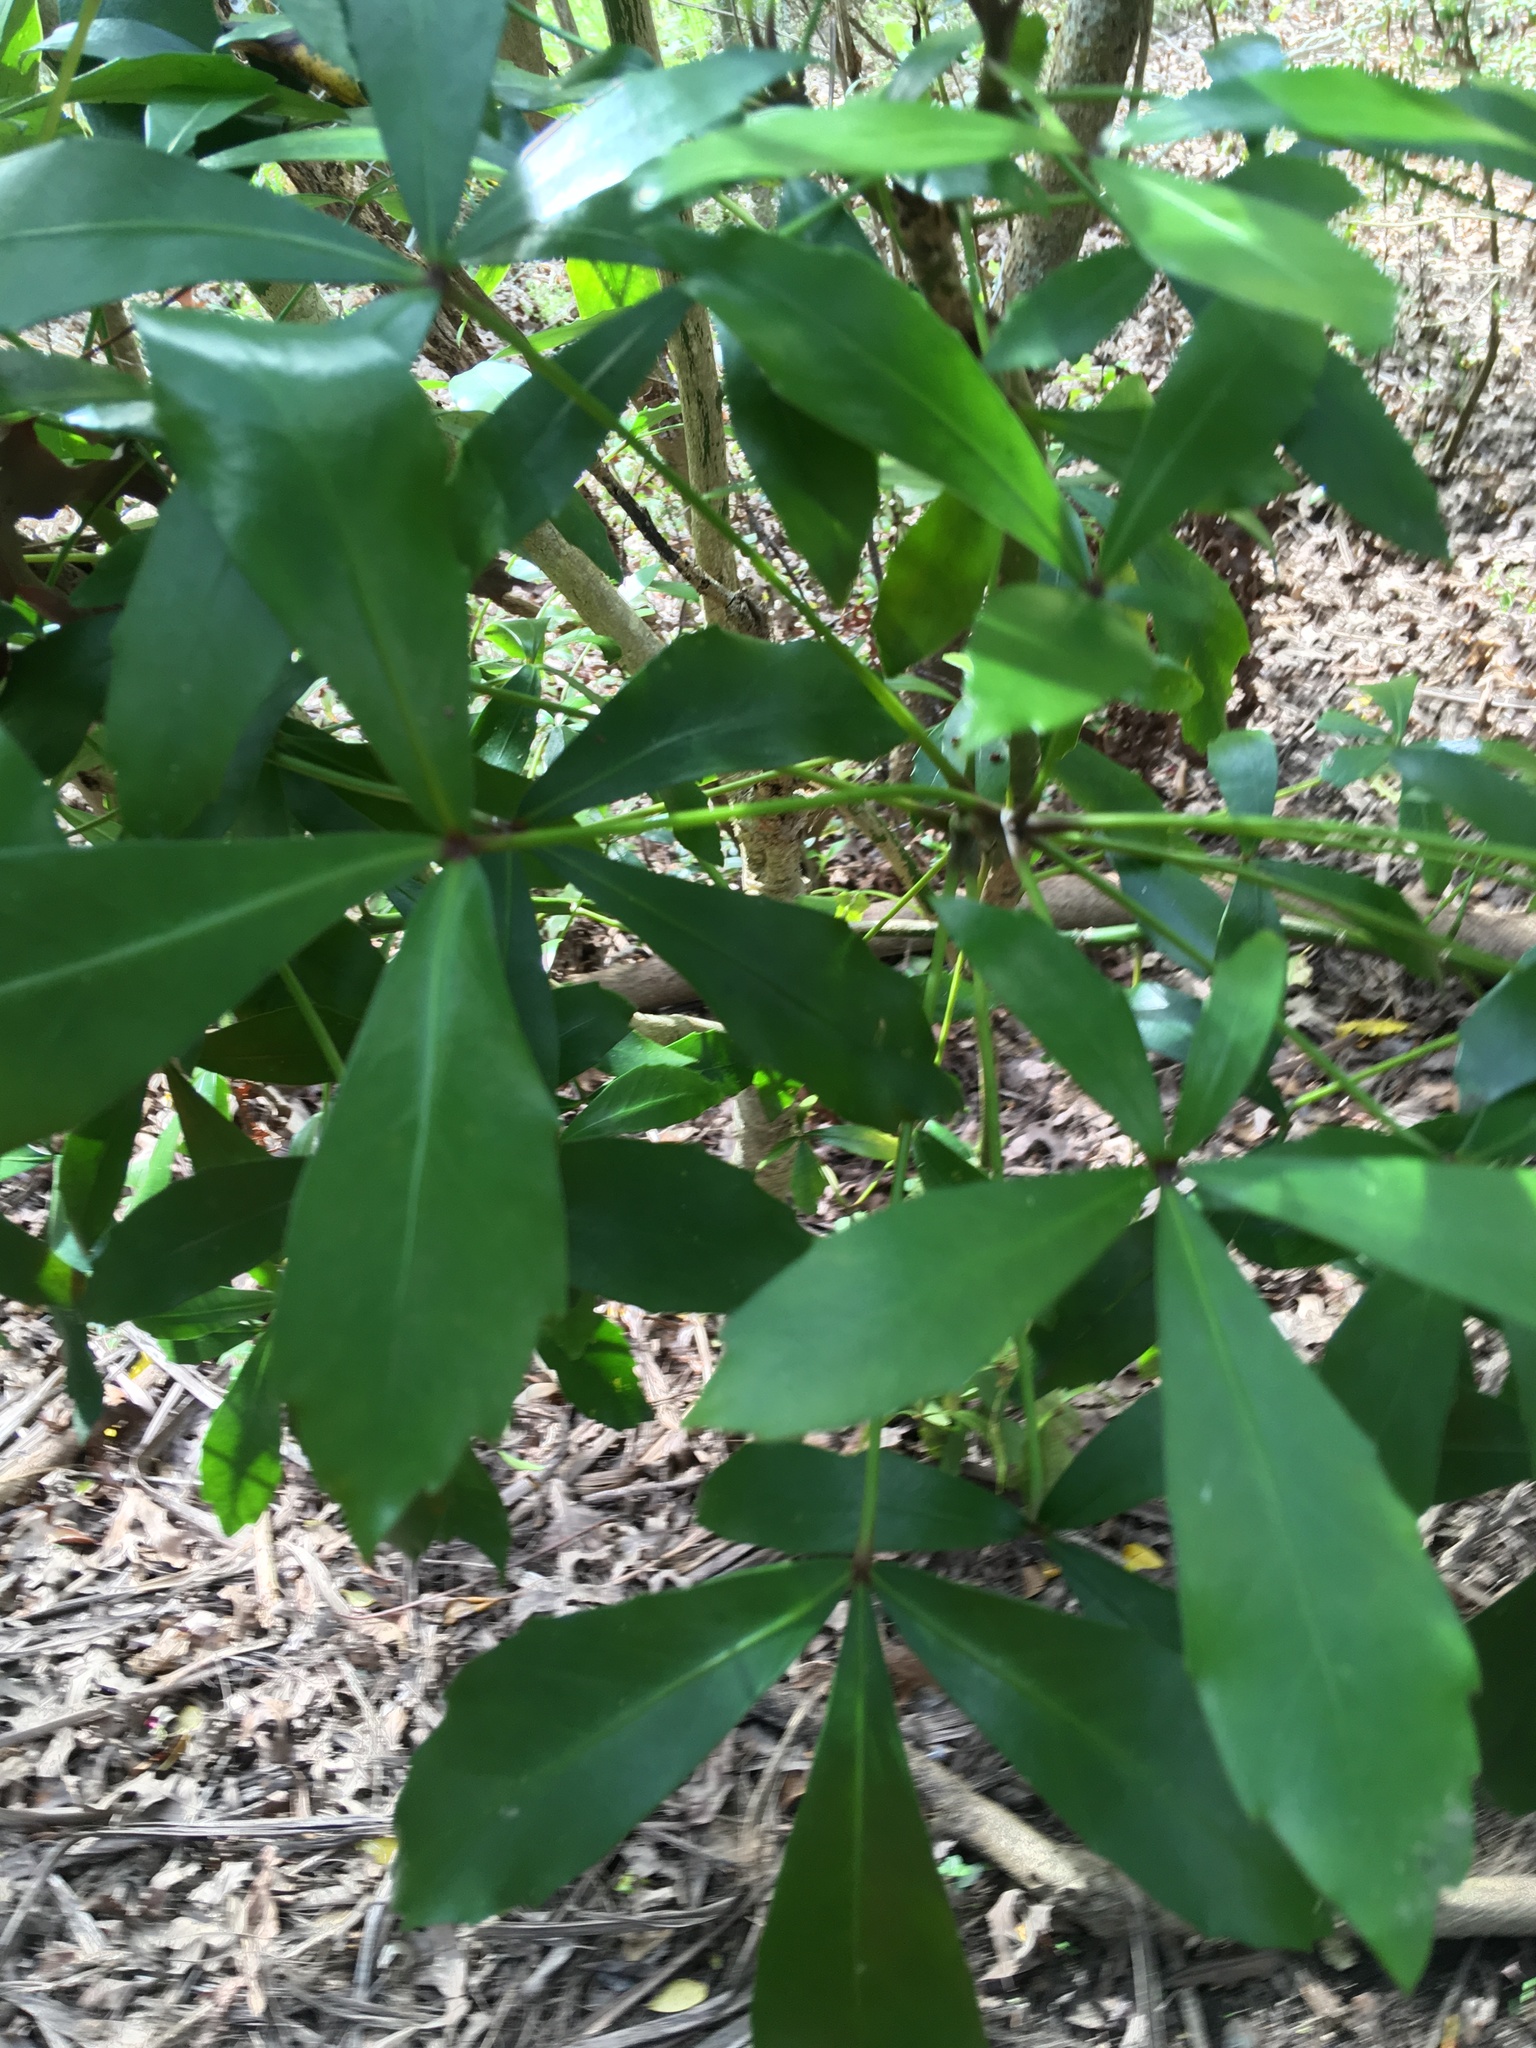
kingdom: Plantae
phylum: Tracheophyta
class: Magnoliopsida
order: Apiales
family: Araliaceae
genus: Pseudopanax
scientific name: Pseudopanax lessonii
